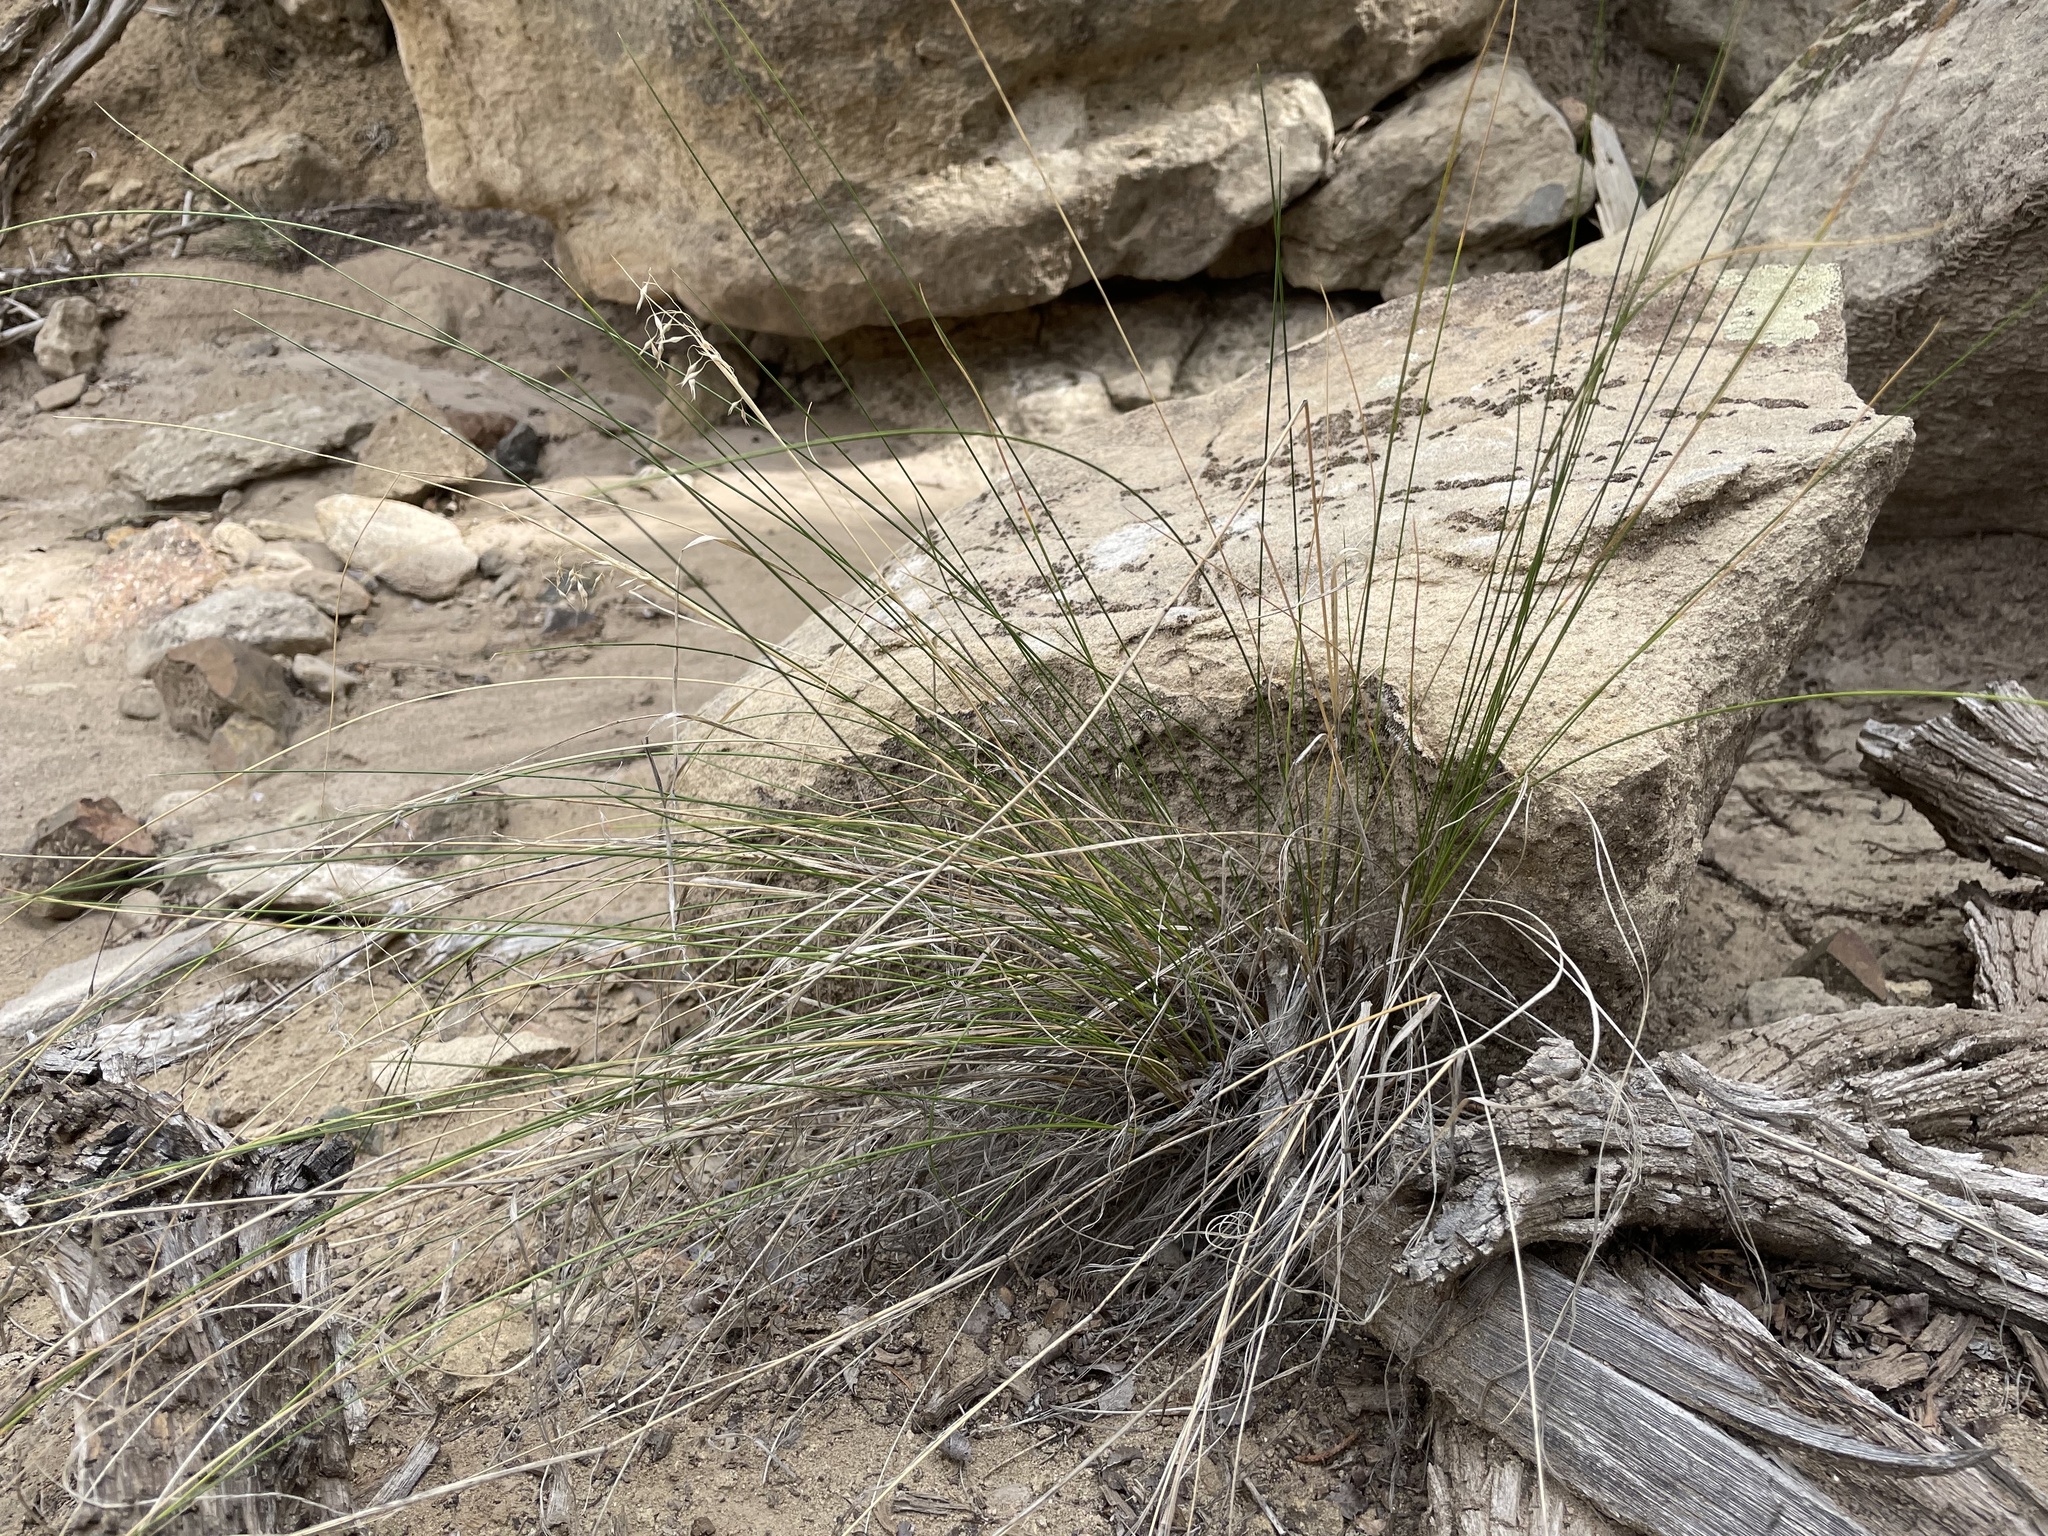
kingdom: Plantae
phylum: Tracheophyta
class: Liliopsida
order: Poales
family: Poaceae
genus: Eriocoma
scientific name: Eriocoma hymenoides
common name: Indian mountain ricegrass
